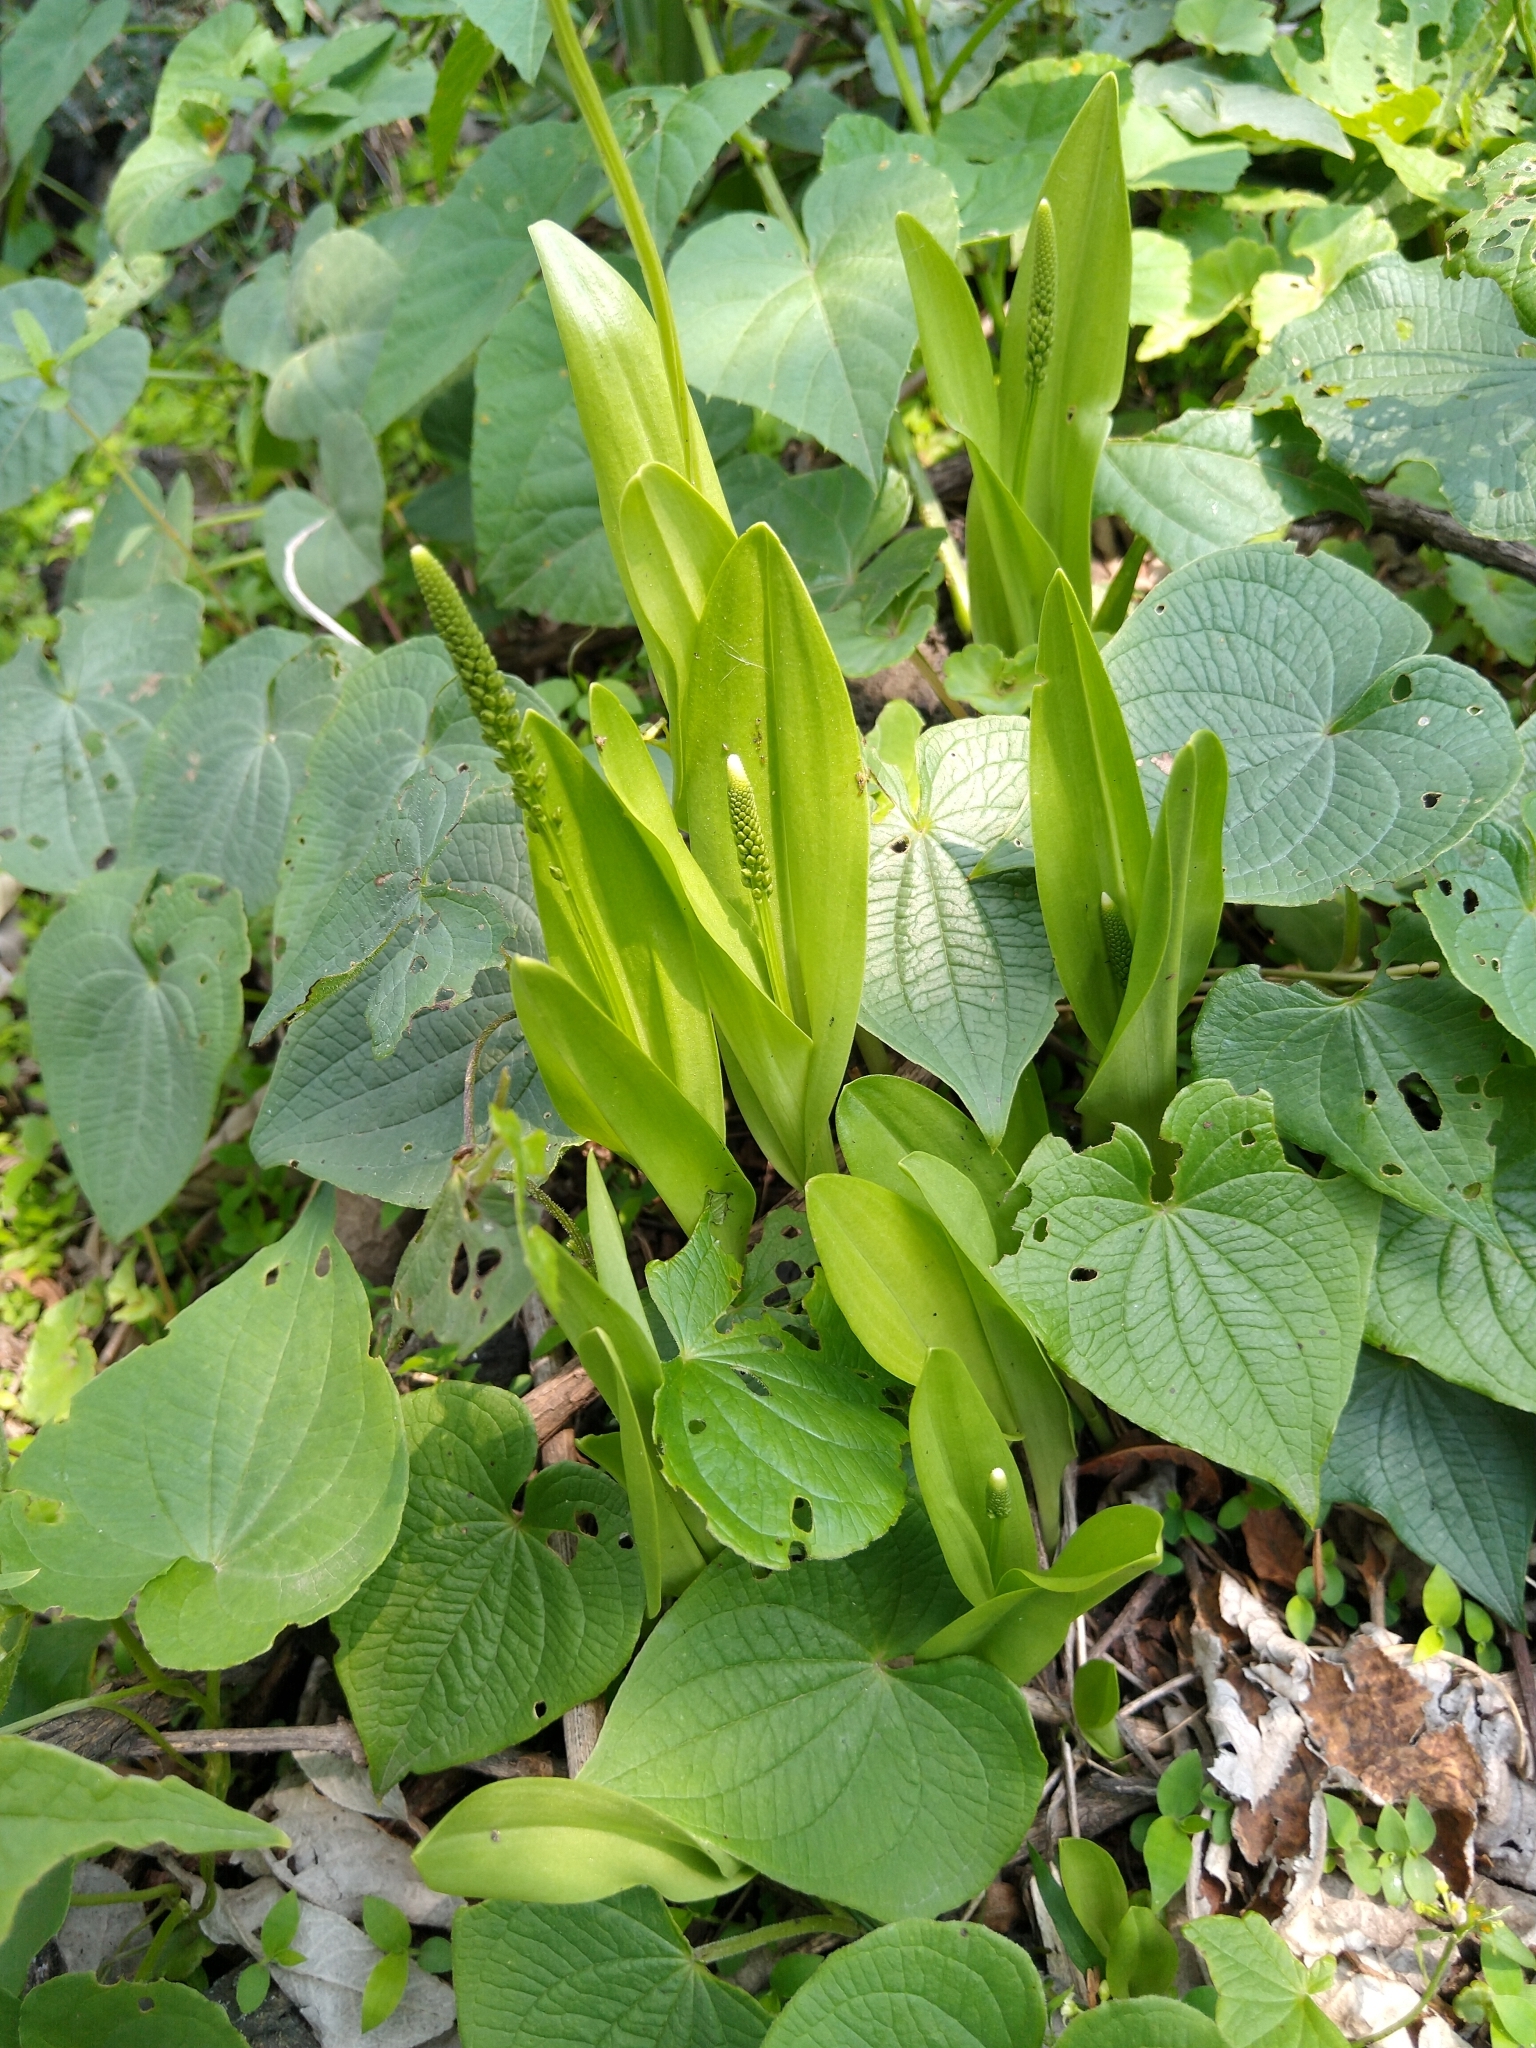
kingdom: Plantae
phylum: Tracheophyta
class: Liliopsida
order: Asparagales
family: Orchidaceae
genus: Malaxis
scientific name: Malaxis myurus
